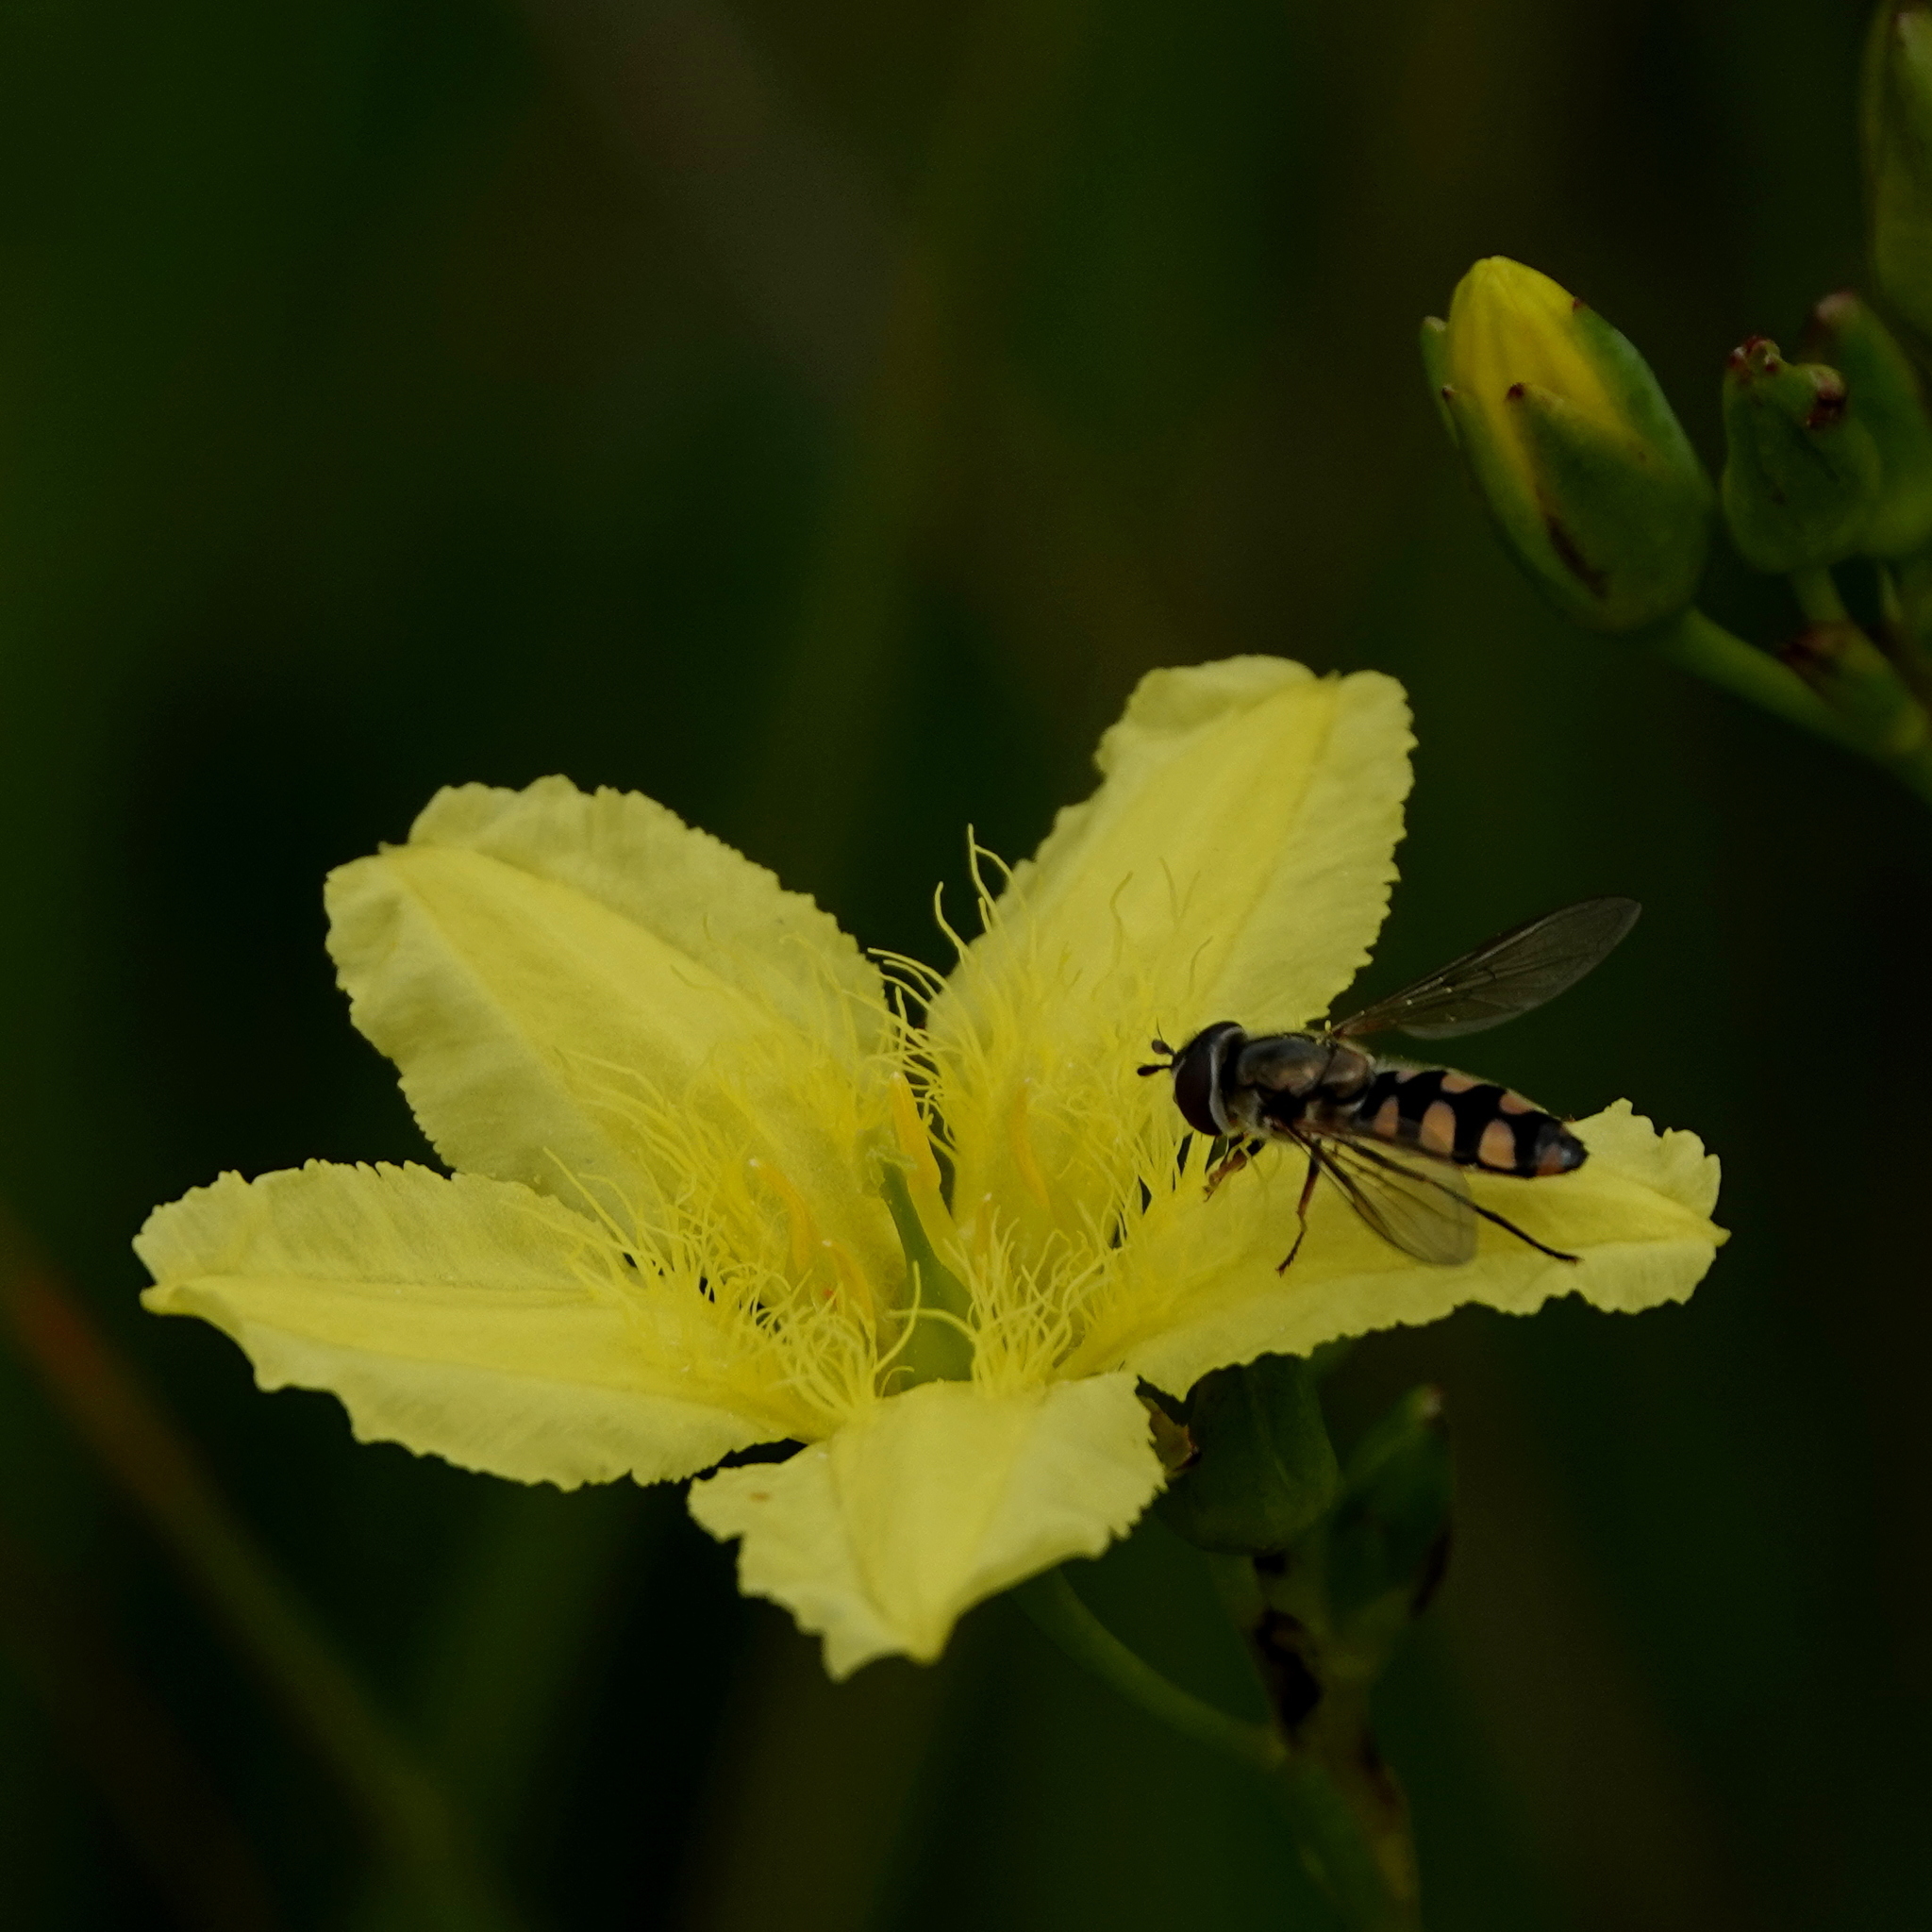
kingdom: Plantae
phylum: Tracheophyta
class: Magnoliopsida
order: Asterales
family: Menyanthaceae
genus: Ornduffia
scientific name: Ornduffia reniformis
